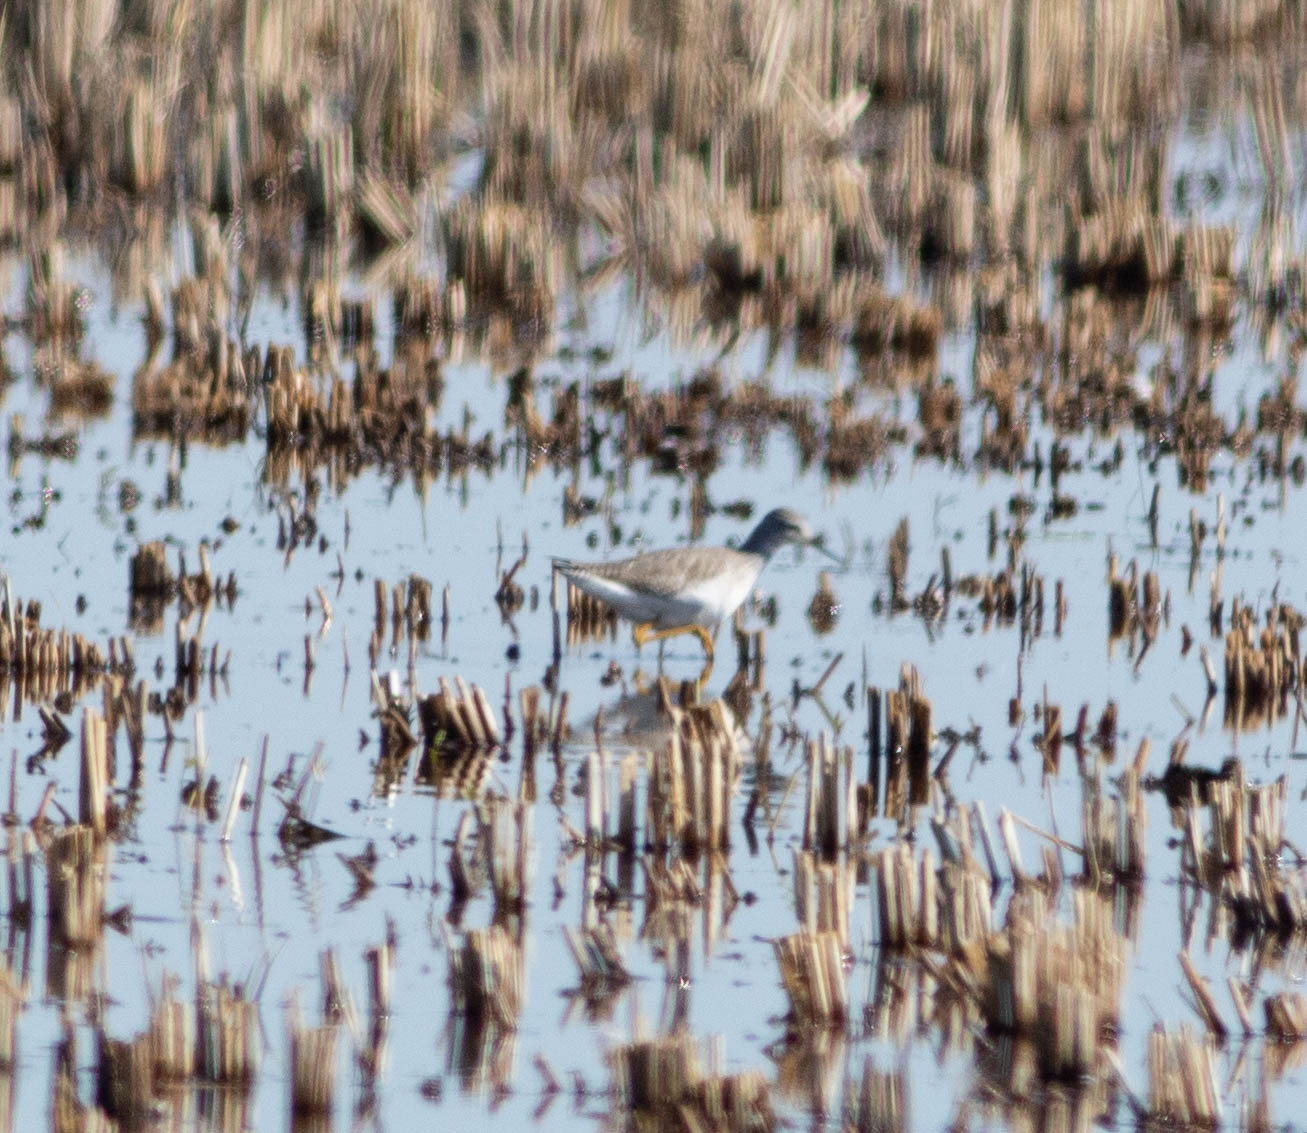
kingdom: Animalia
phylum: Chordata
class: Aves
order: Charadriiformes
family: Scolopacidae
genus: Tringa
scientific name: Tringa flavipes
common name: Lesser yellowlegs
